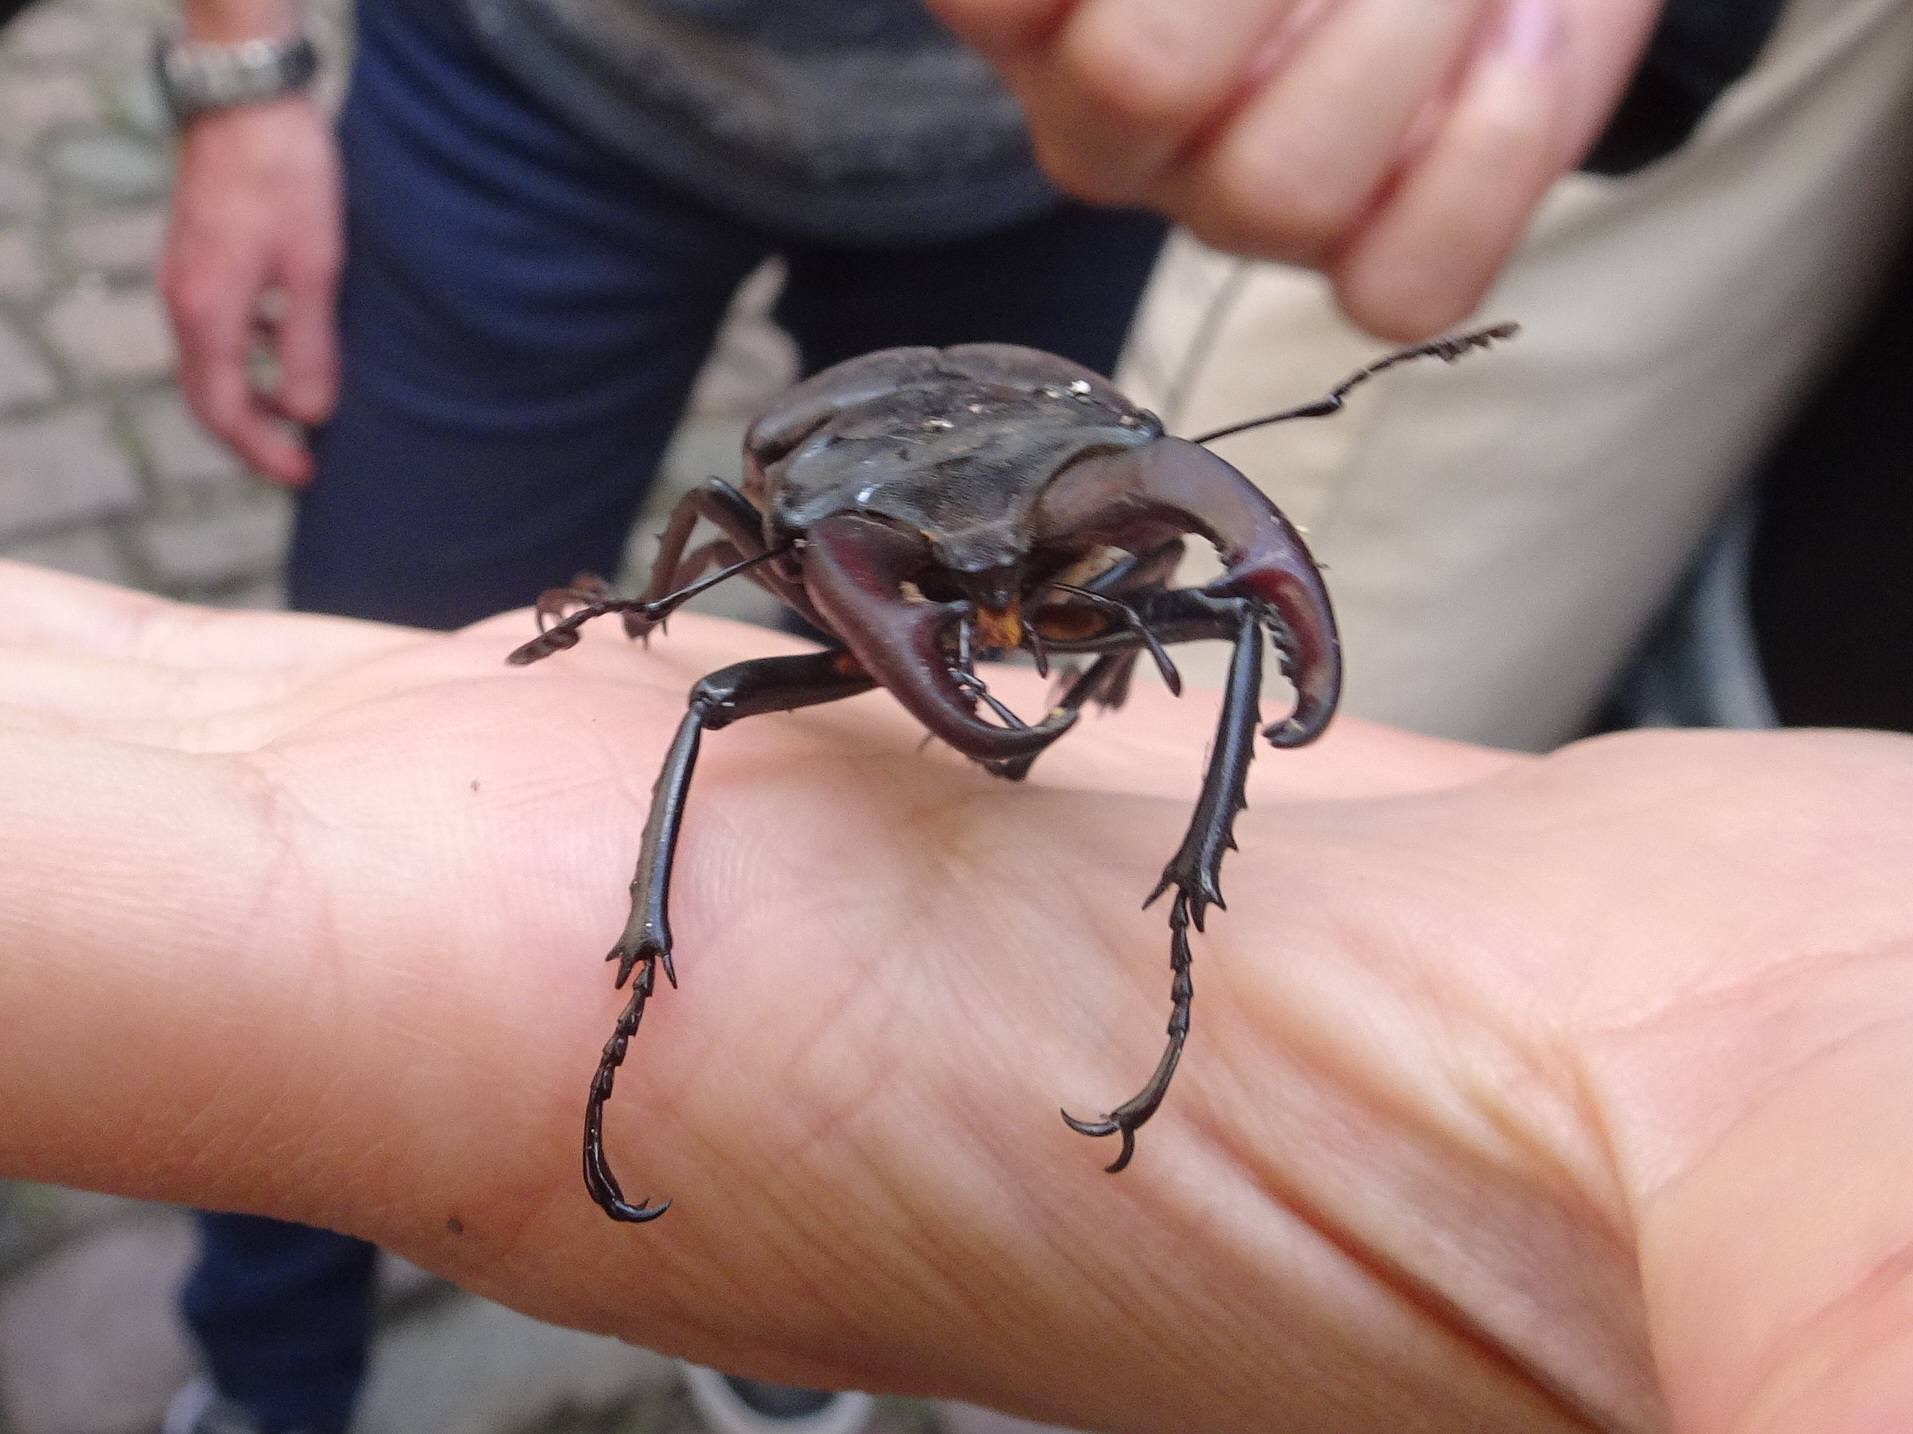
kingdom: Animalia
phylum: Arthropoda
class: Insecta
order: Coleoptera
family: Lucanidae
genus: Lucanus
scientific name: Lucanus cervus
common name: Stag beetle
